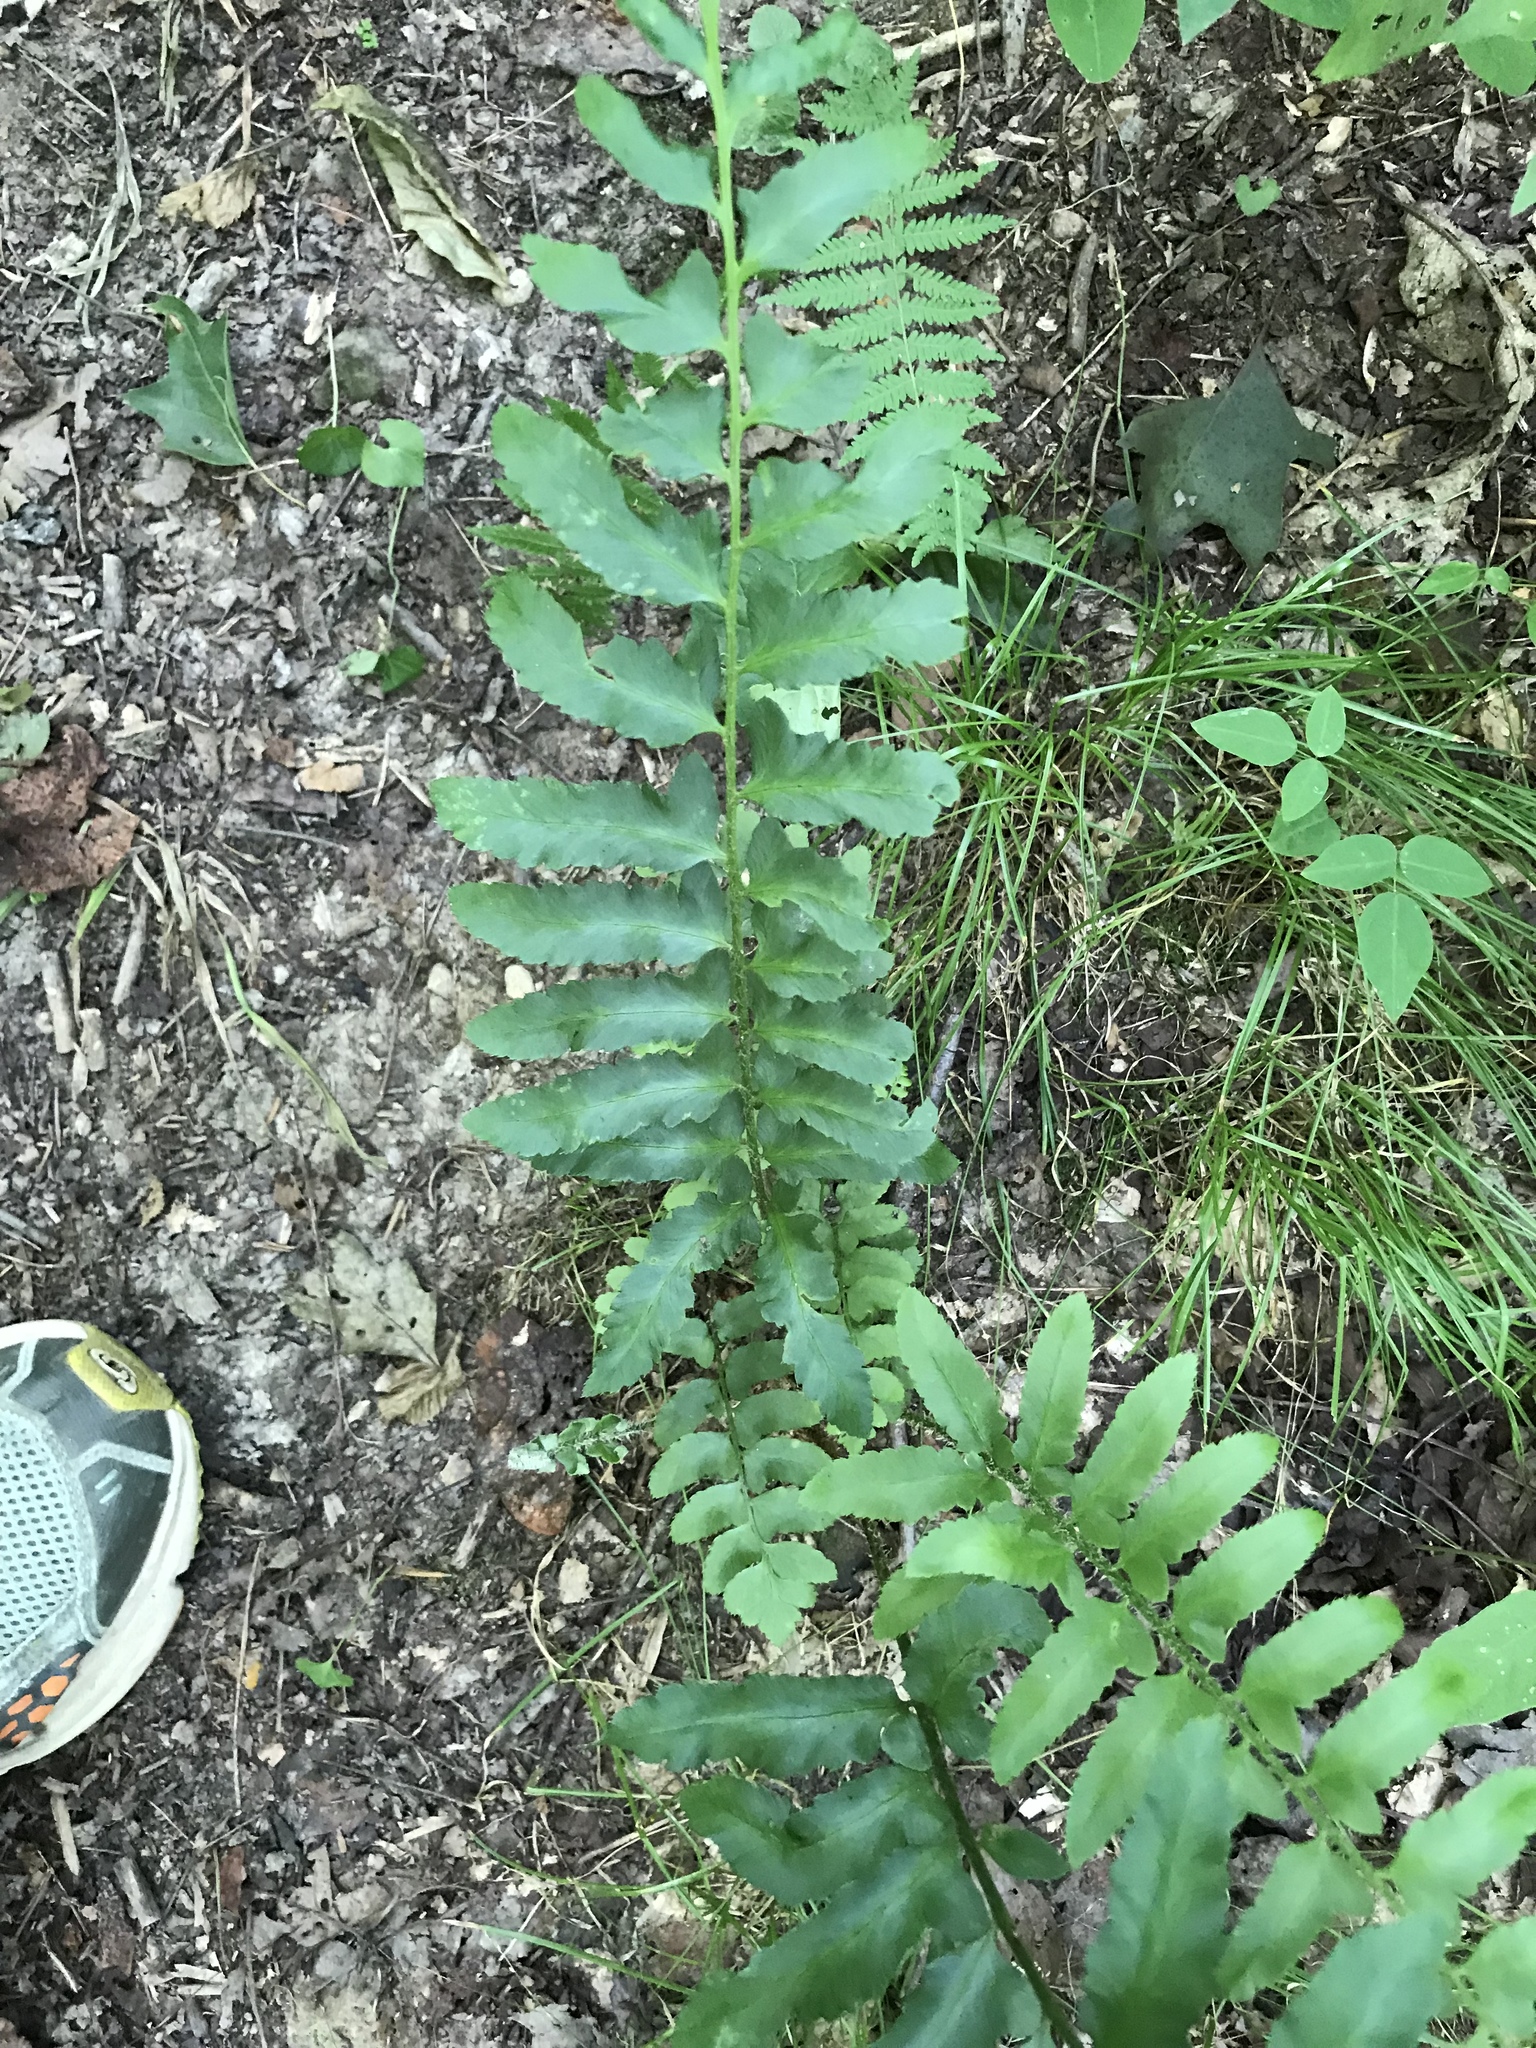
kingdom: Plantae
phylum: Tracheophyta
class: Polypodiopsida
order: Polypodiales
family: Dryopteridaceae
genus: Polystichum
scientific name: Polystichum acrostichoides
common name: Christmas fern
